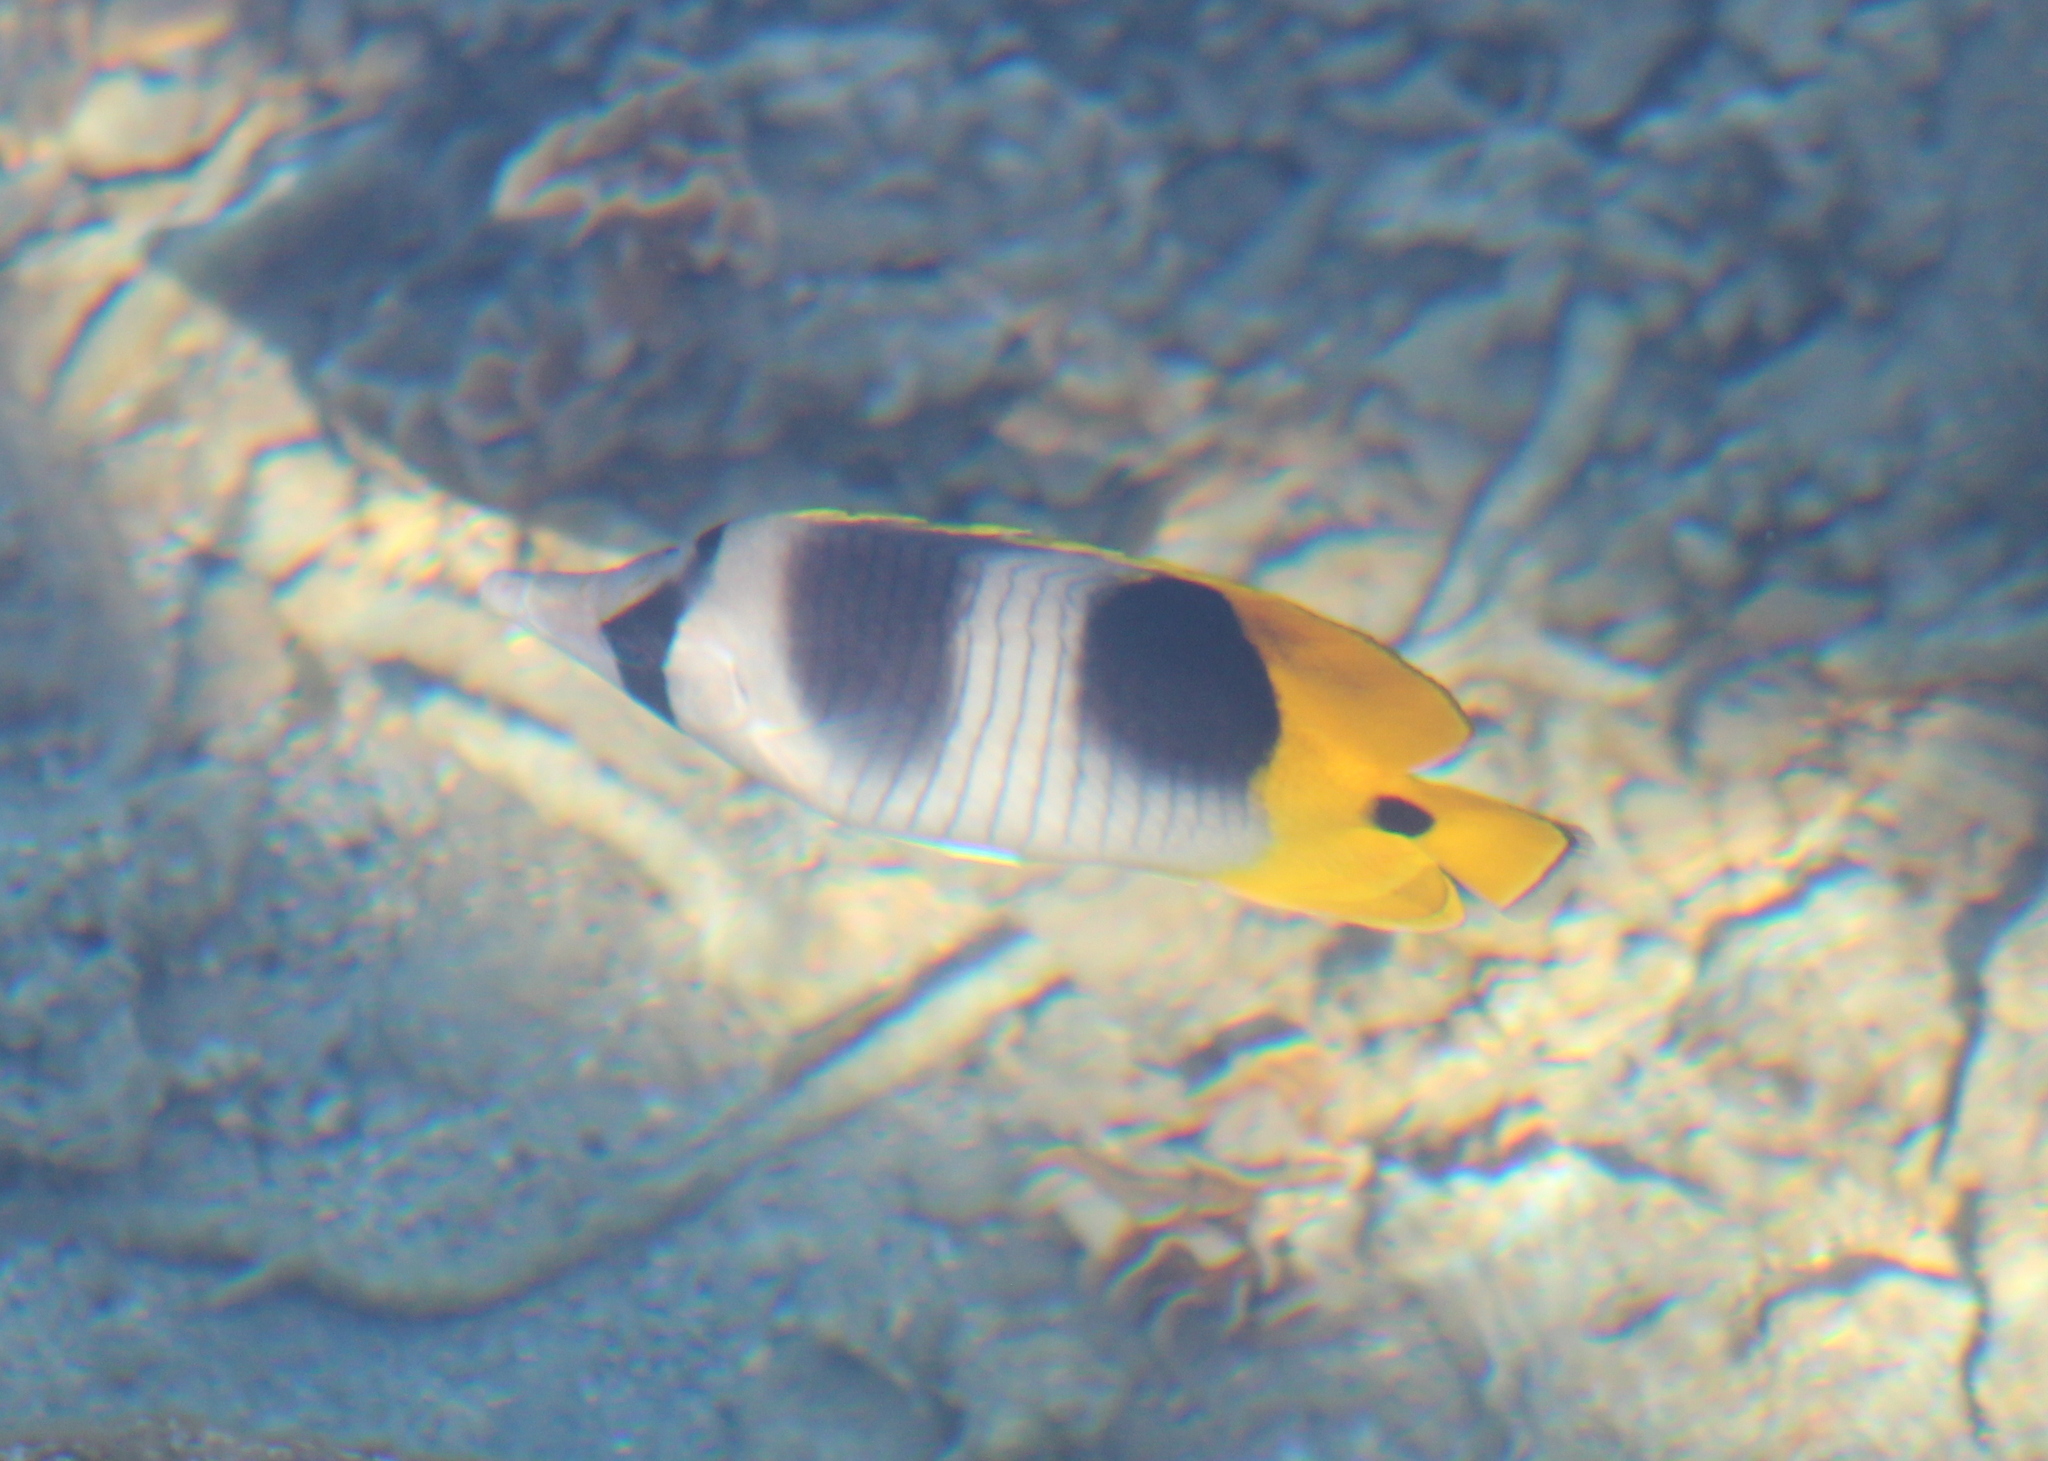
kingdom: Animalia
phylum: Chordata
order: Perciformes
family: Chaetodontidae
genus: Chaetodon
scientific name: Chaetodon ulietensis
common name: Pacific double-saddle butterflyfish
